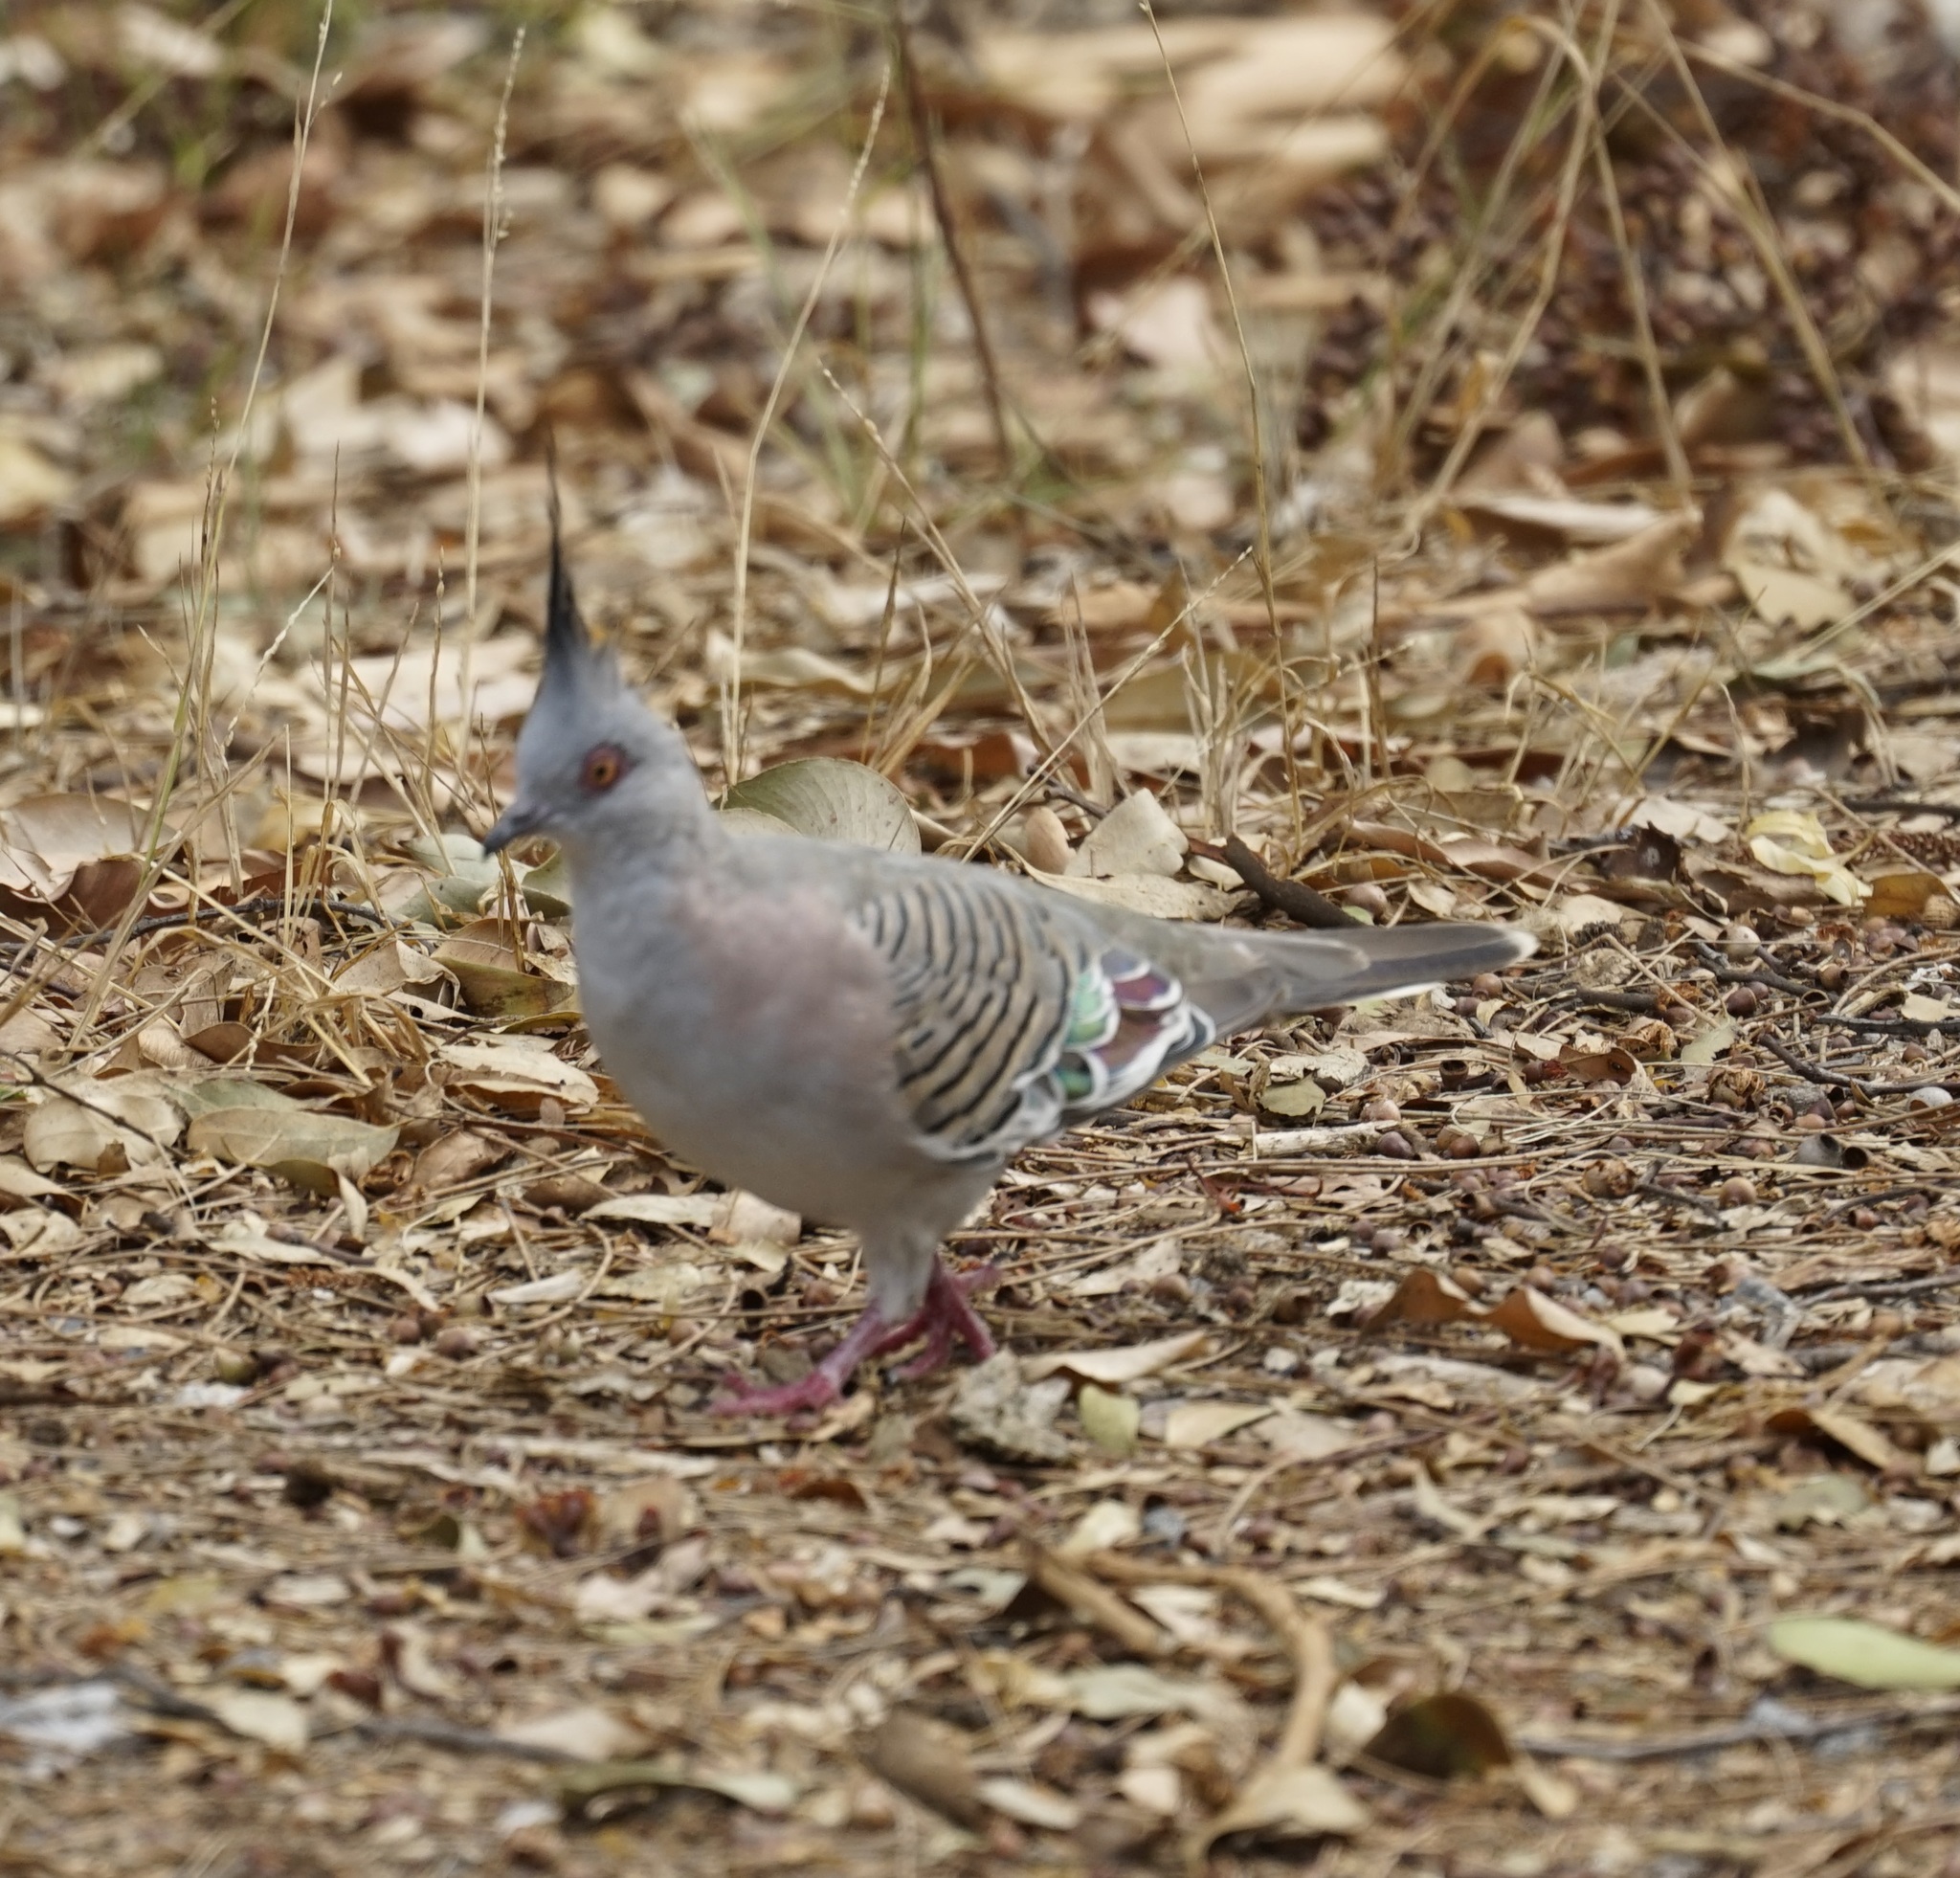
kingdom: Animalia
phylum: Chordata
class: Aves
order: Columbiformes
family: Columbidae
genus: Ocyphaps
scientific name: Ocyphaps lophotes
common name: Crested pigeon
